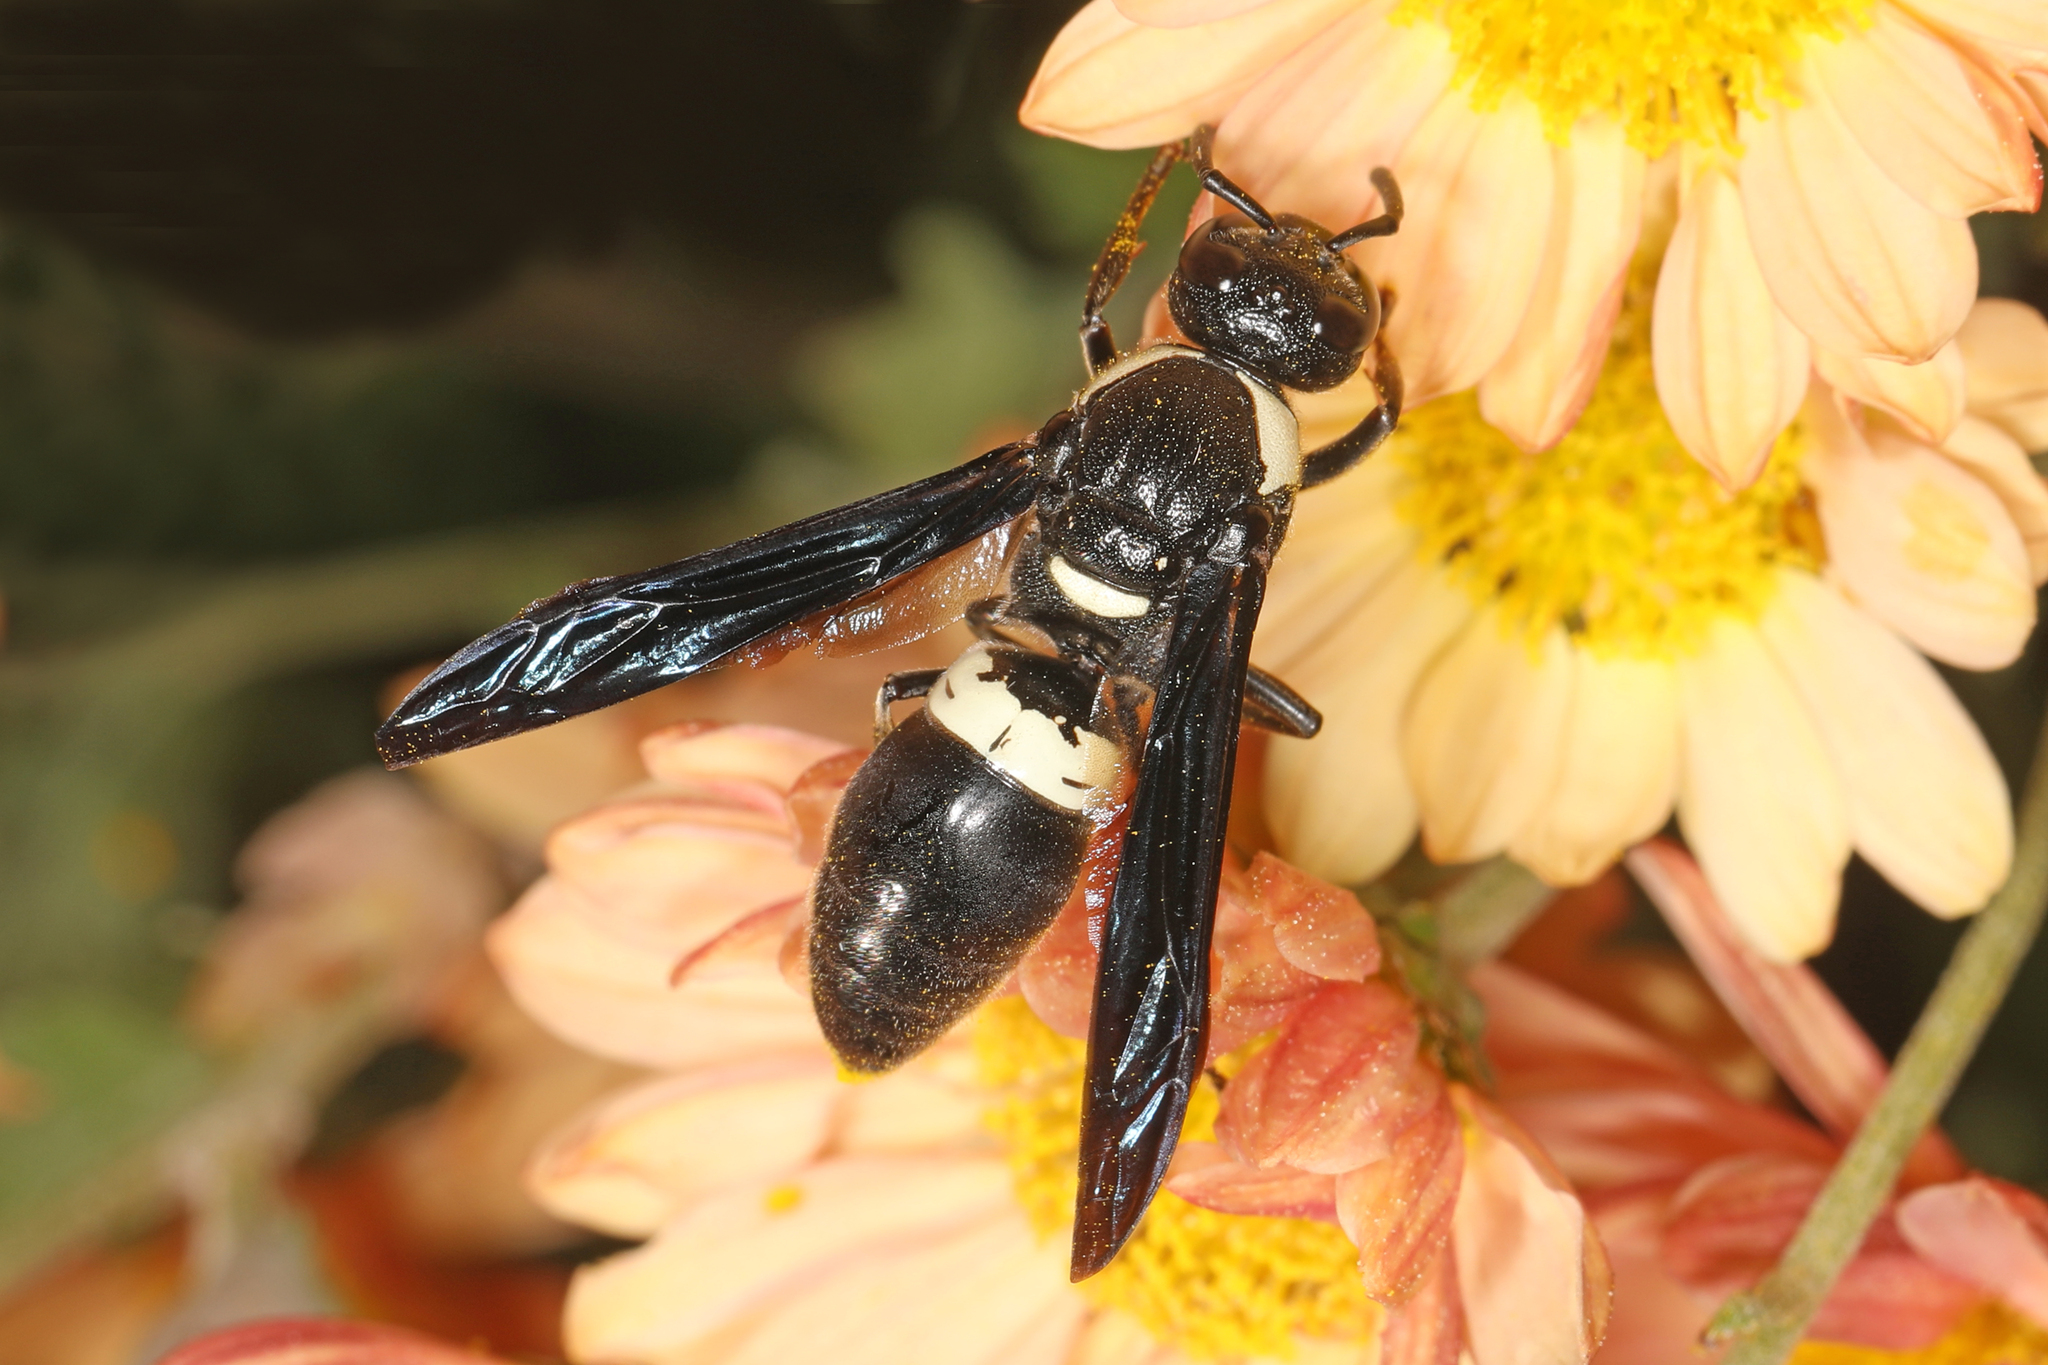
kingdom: Animalia
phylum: Arthropoda
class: Insecta
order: Hymenoptera
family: Eumenidae
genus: Monobia
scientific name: Monobia quadridens
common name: Four-toothed mason wasp
